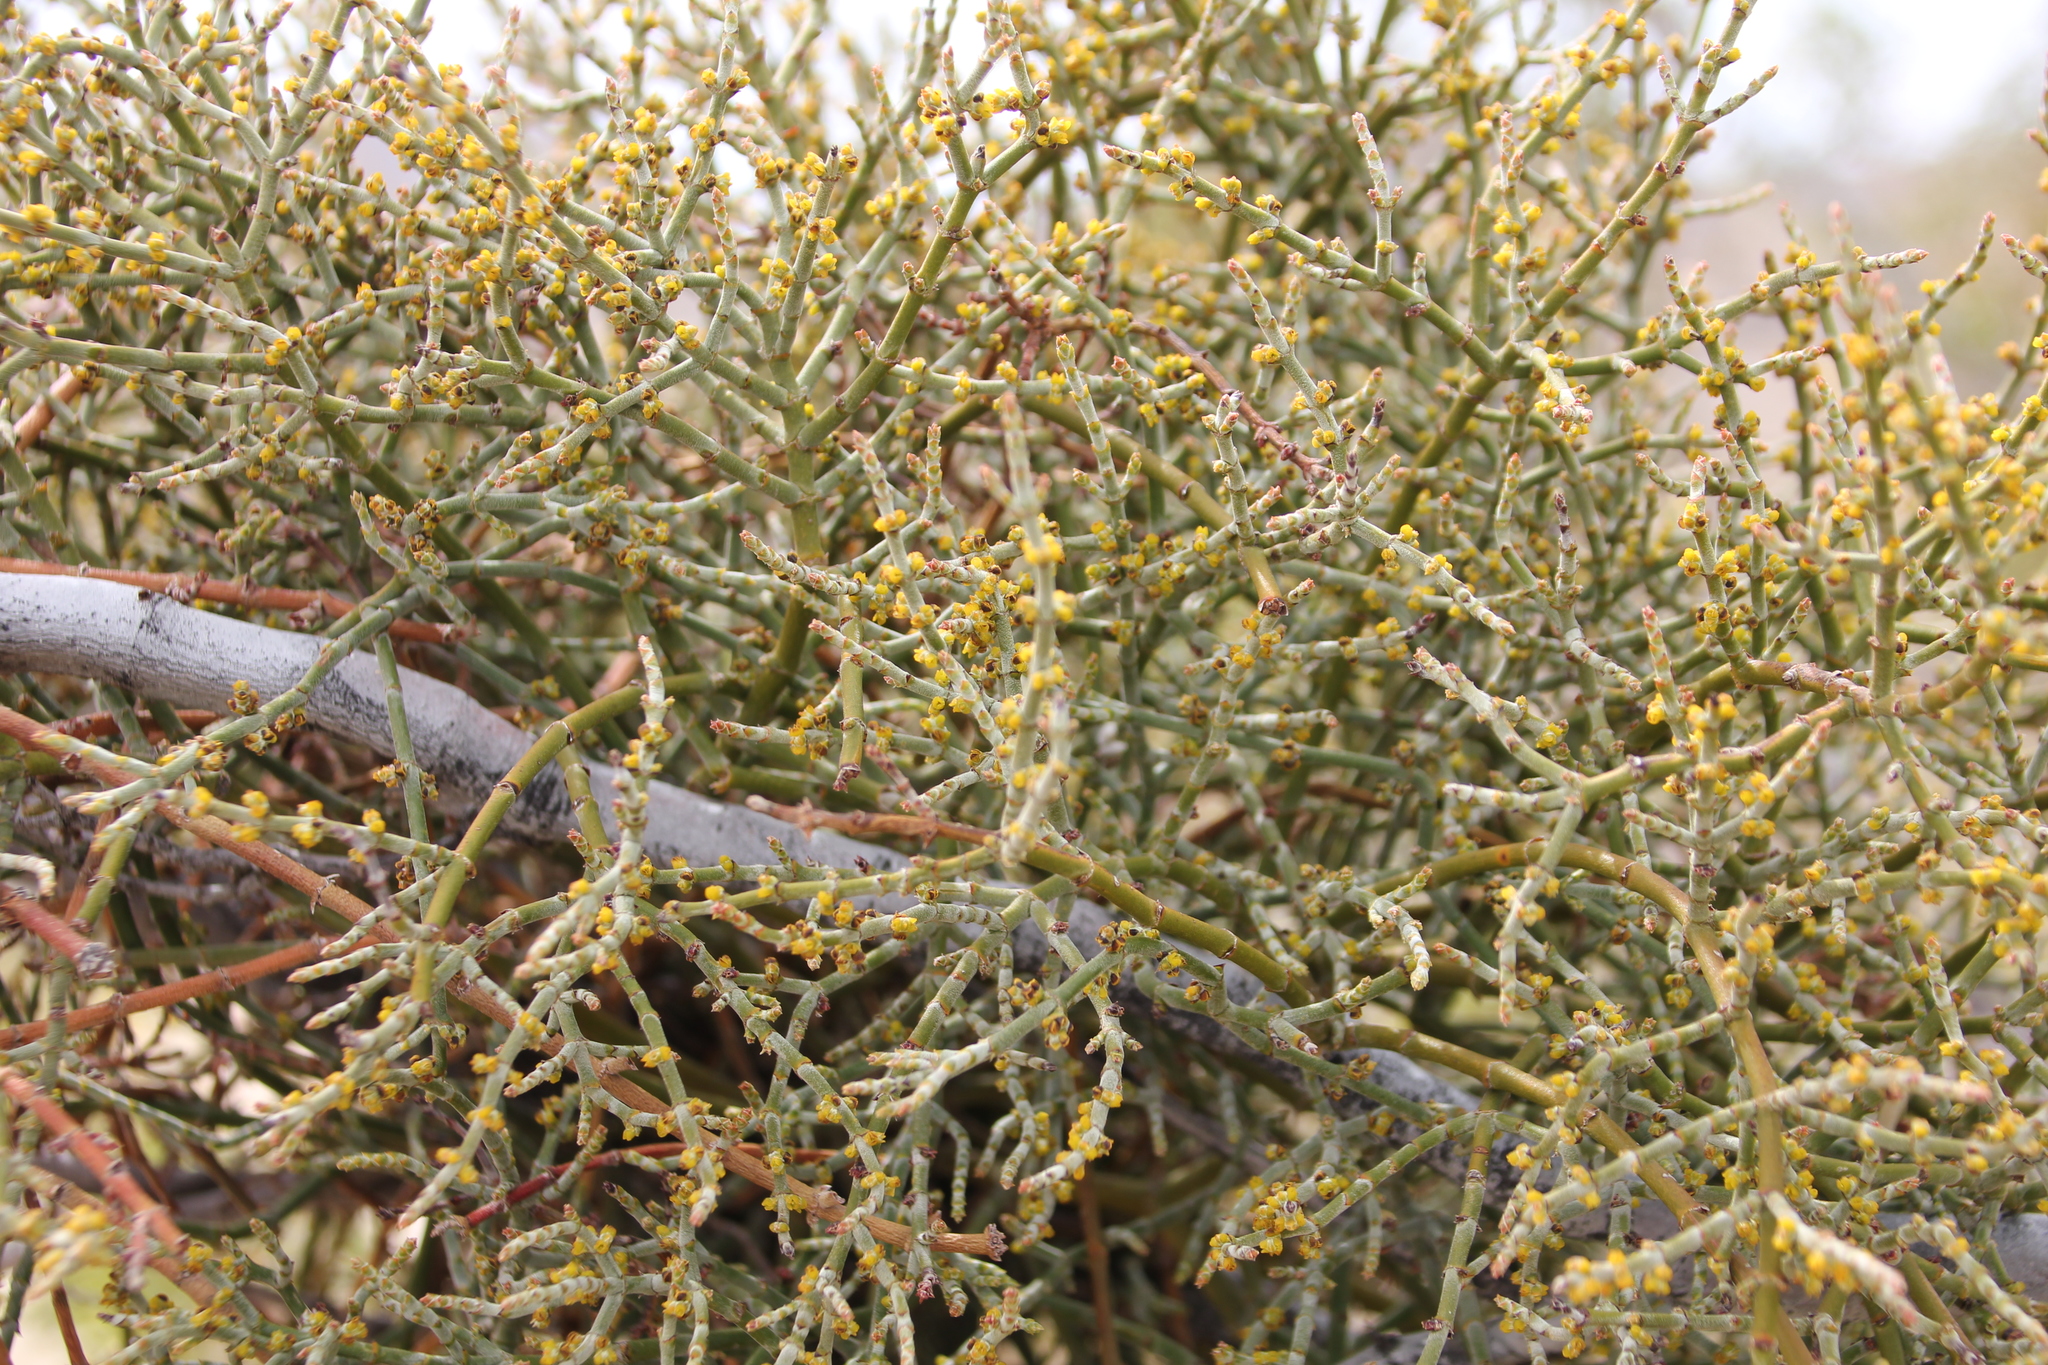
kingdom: Plantae
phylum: Tracheophyta
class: Magnoliopsida
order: Santalales
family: Viscaceae
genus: Phoradendron
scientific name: Phoradendron californicum
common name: Acacia mistletoe
